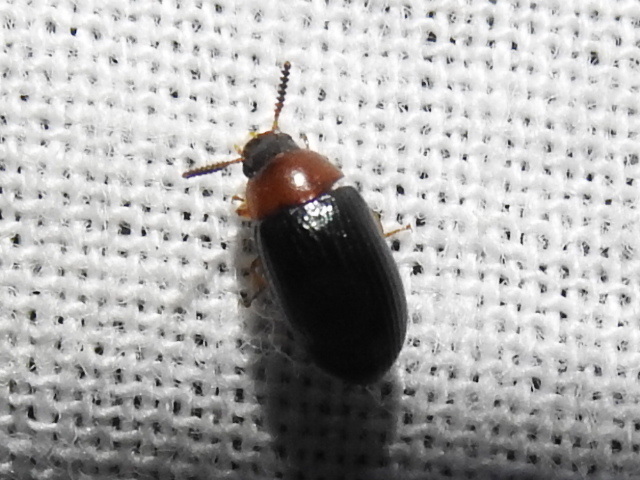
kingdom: Animalia
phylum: Arthropoda
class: Insecta
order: Coleoptera
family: Tenebrionidae
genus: Neomida
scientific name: Neomida bicornis
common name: Two-horned darkling beetle
